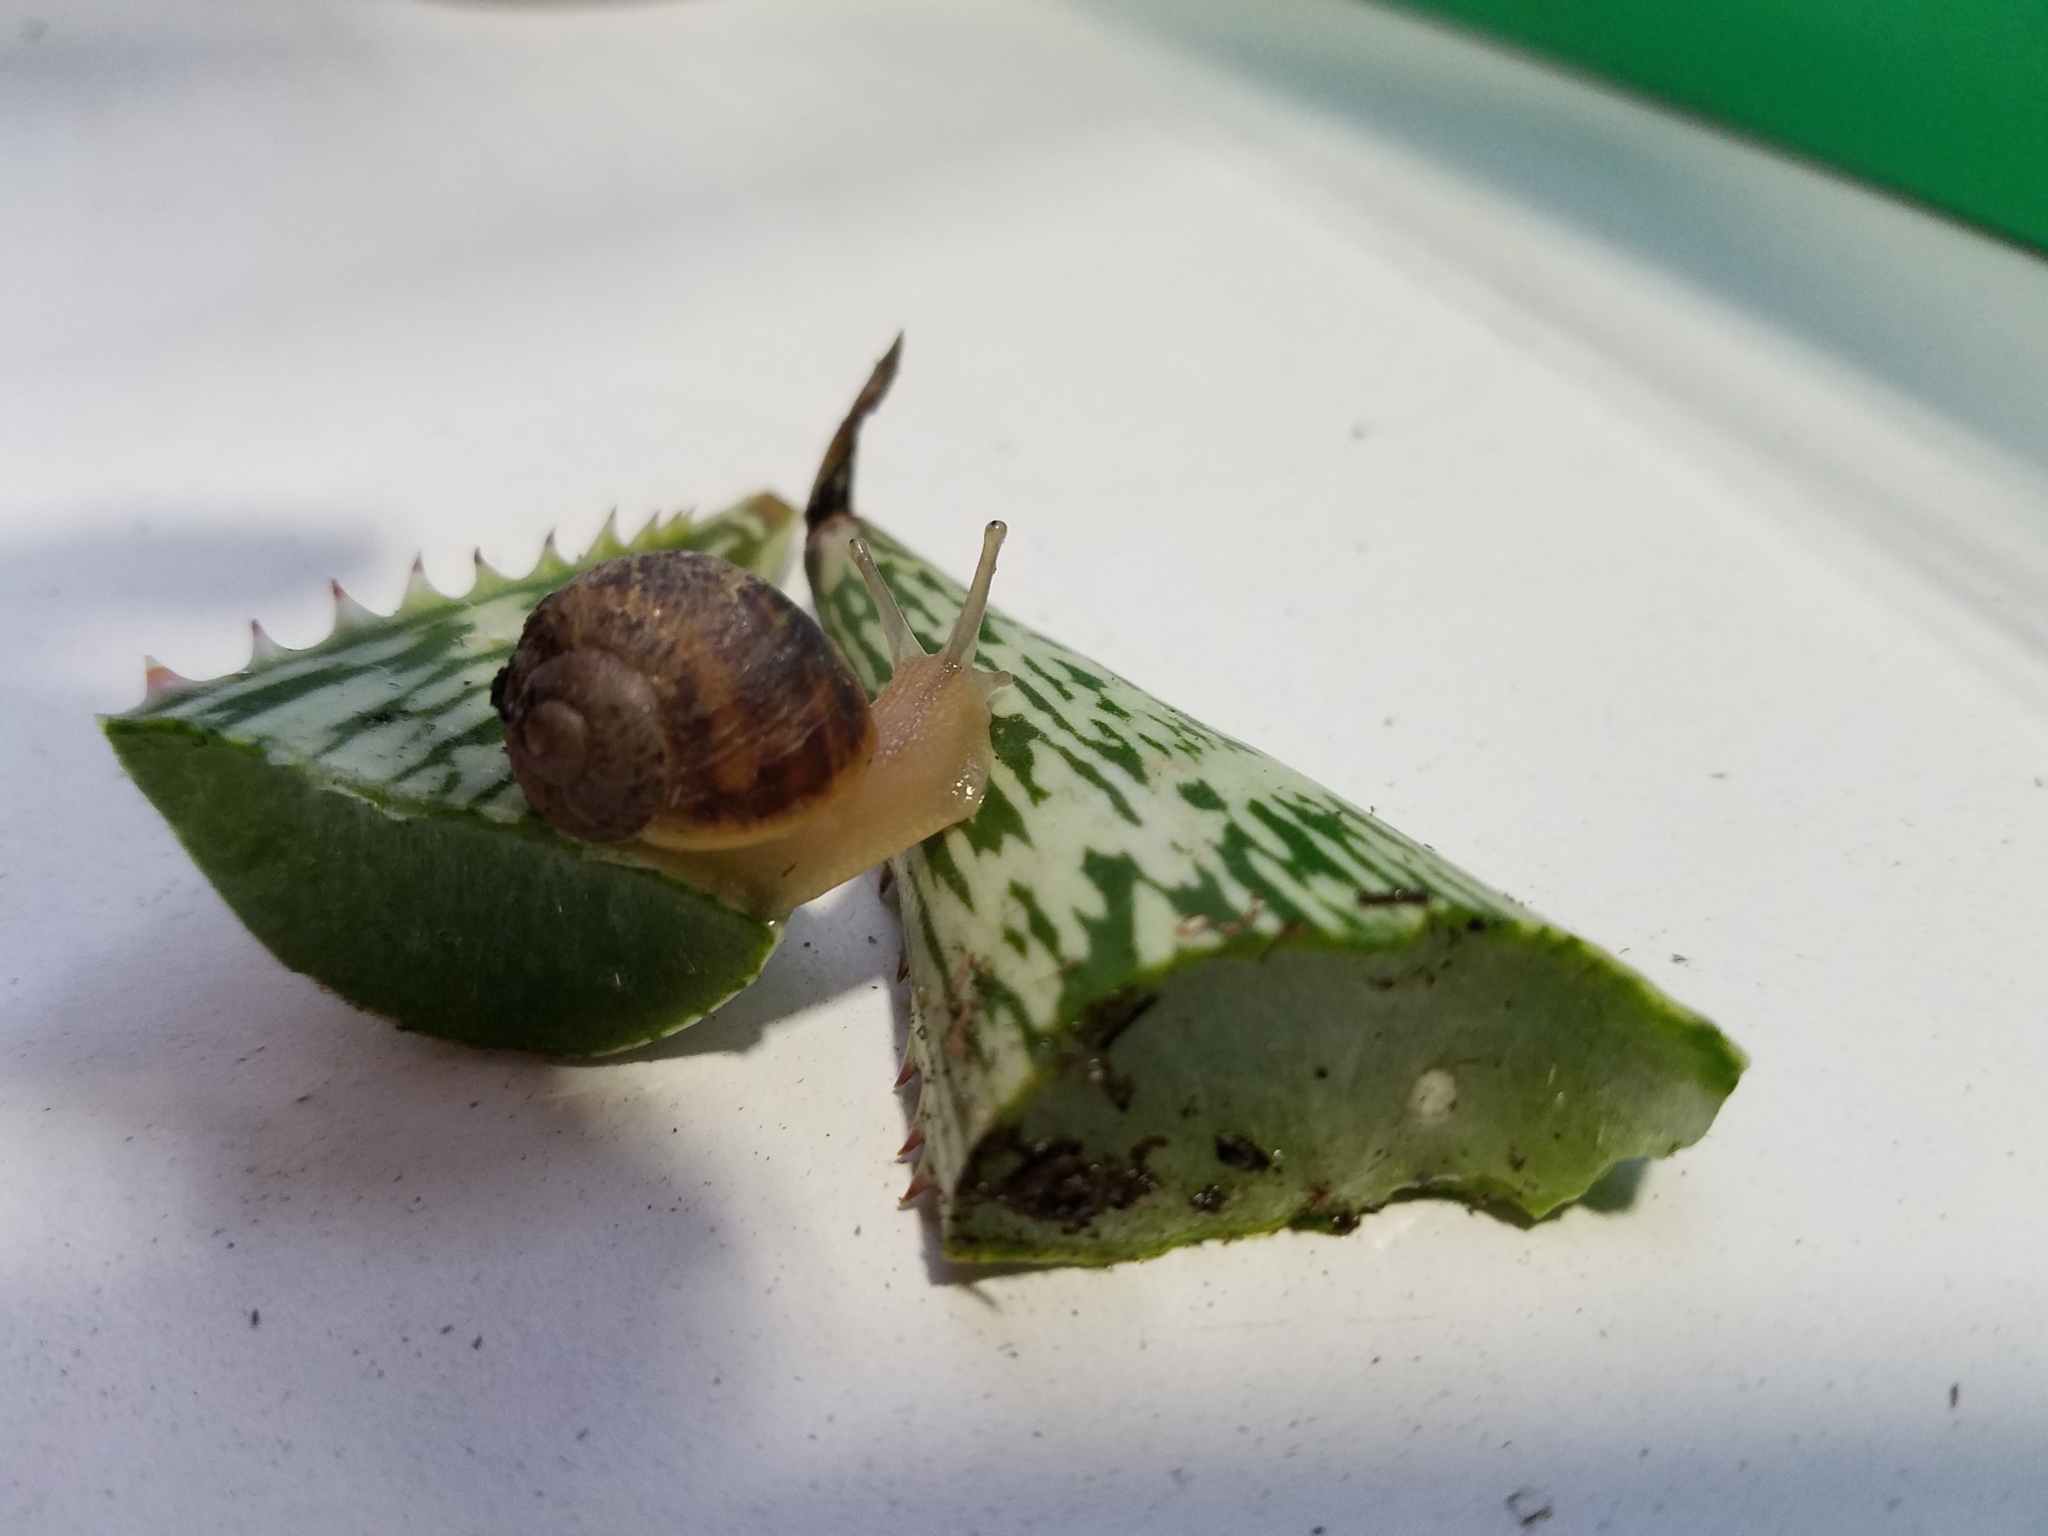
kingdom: Animalia
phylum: Mollusca
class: Gastropoda
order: Stylommatophora
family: Helicidae
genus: Cornu
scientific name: Cornu aspersum
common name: Brown garden snail
